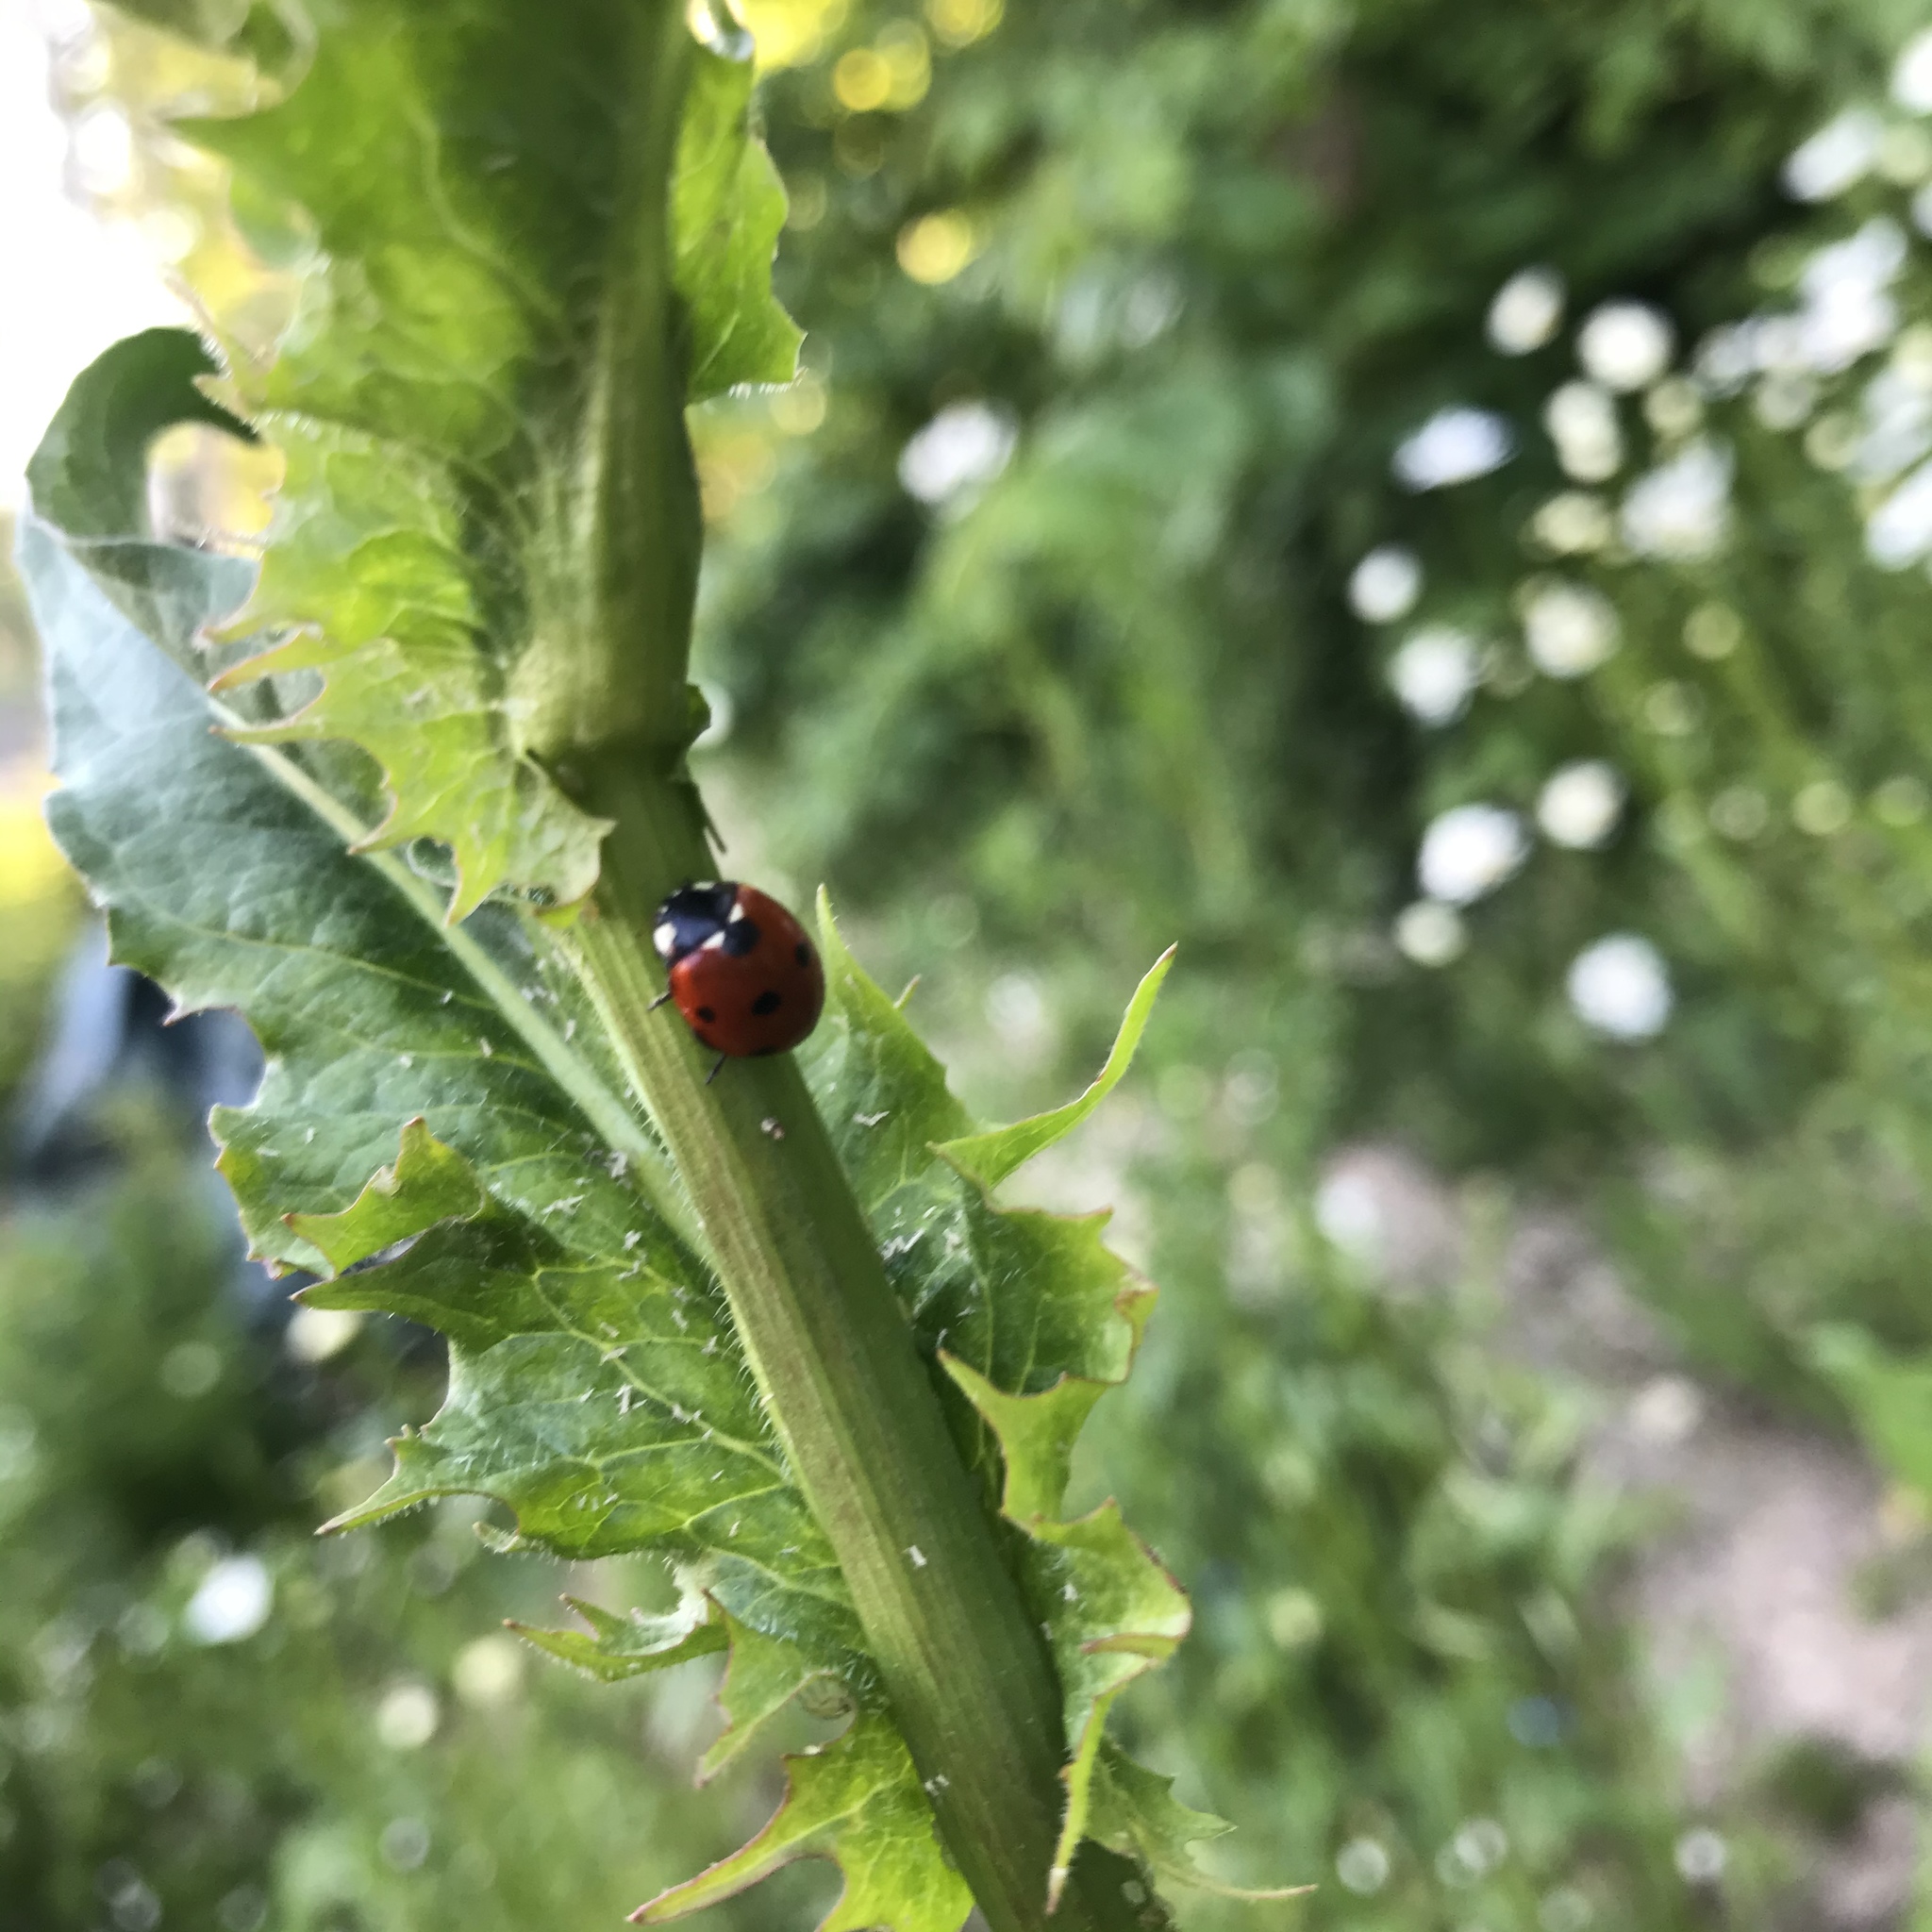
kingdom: Animalia
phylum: Arthropoda
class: Insecta
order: Coleoptera
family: Coccinellidae
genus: Coccinella
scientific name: Coccinella septempunctata
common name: Sevenspotted lady beetle
